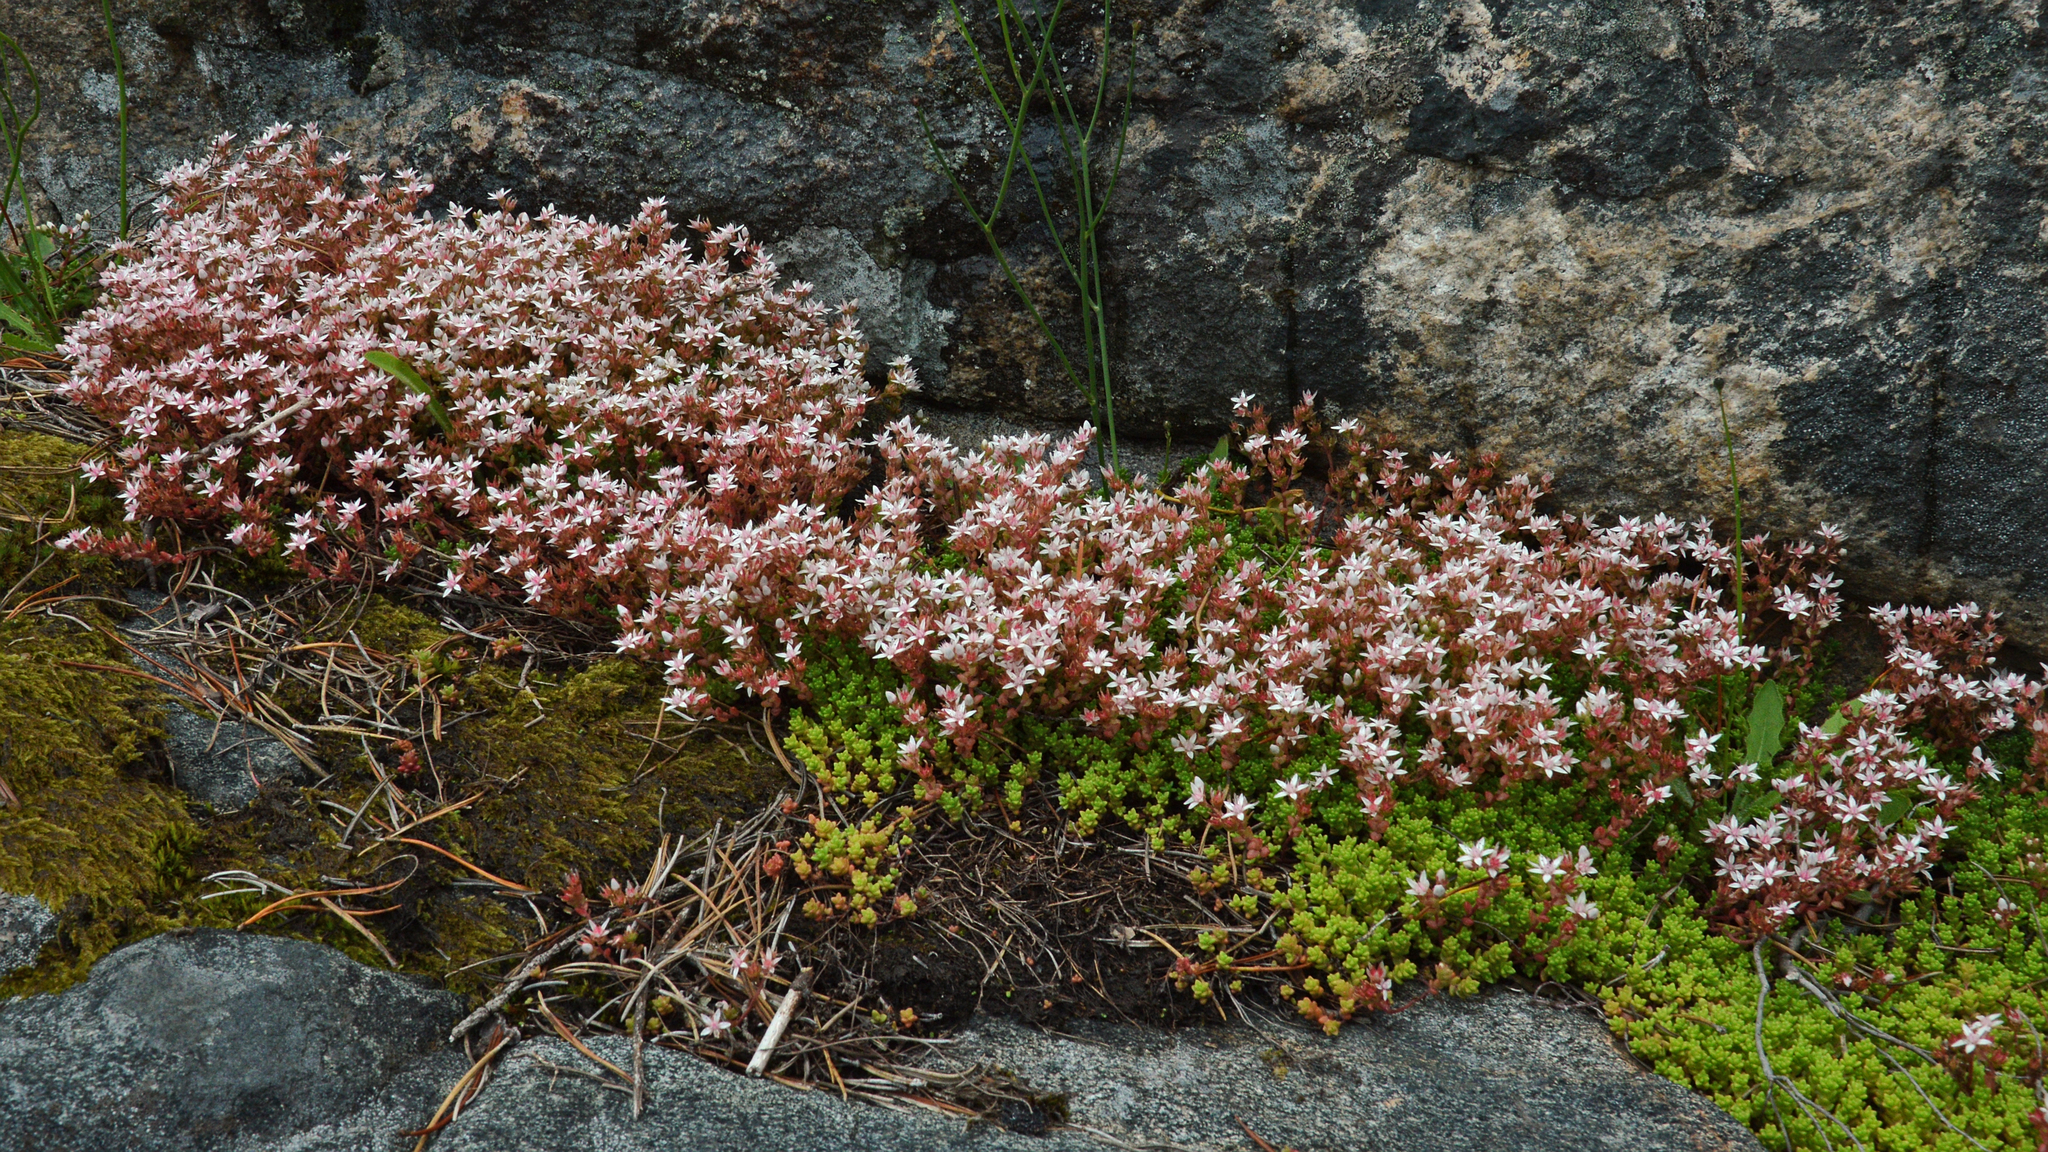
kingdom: Plantae
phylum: Tracheophyta
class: Magnoliopsida
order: Saxifragales
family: Crassulaceae
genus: Sedum
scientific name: Sedum anglicum
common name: English stonecrop
